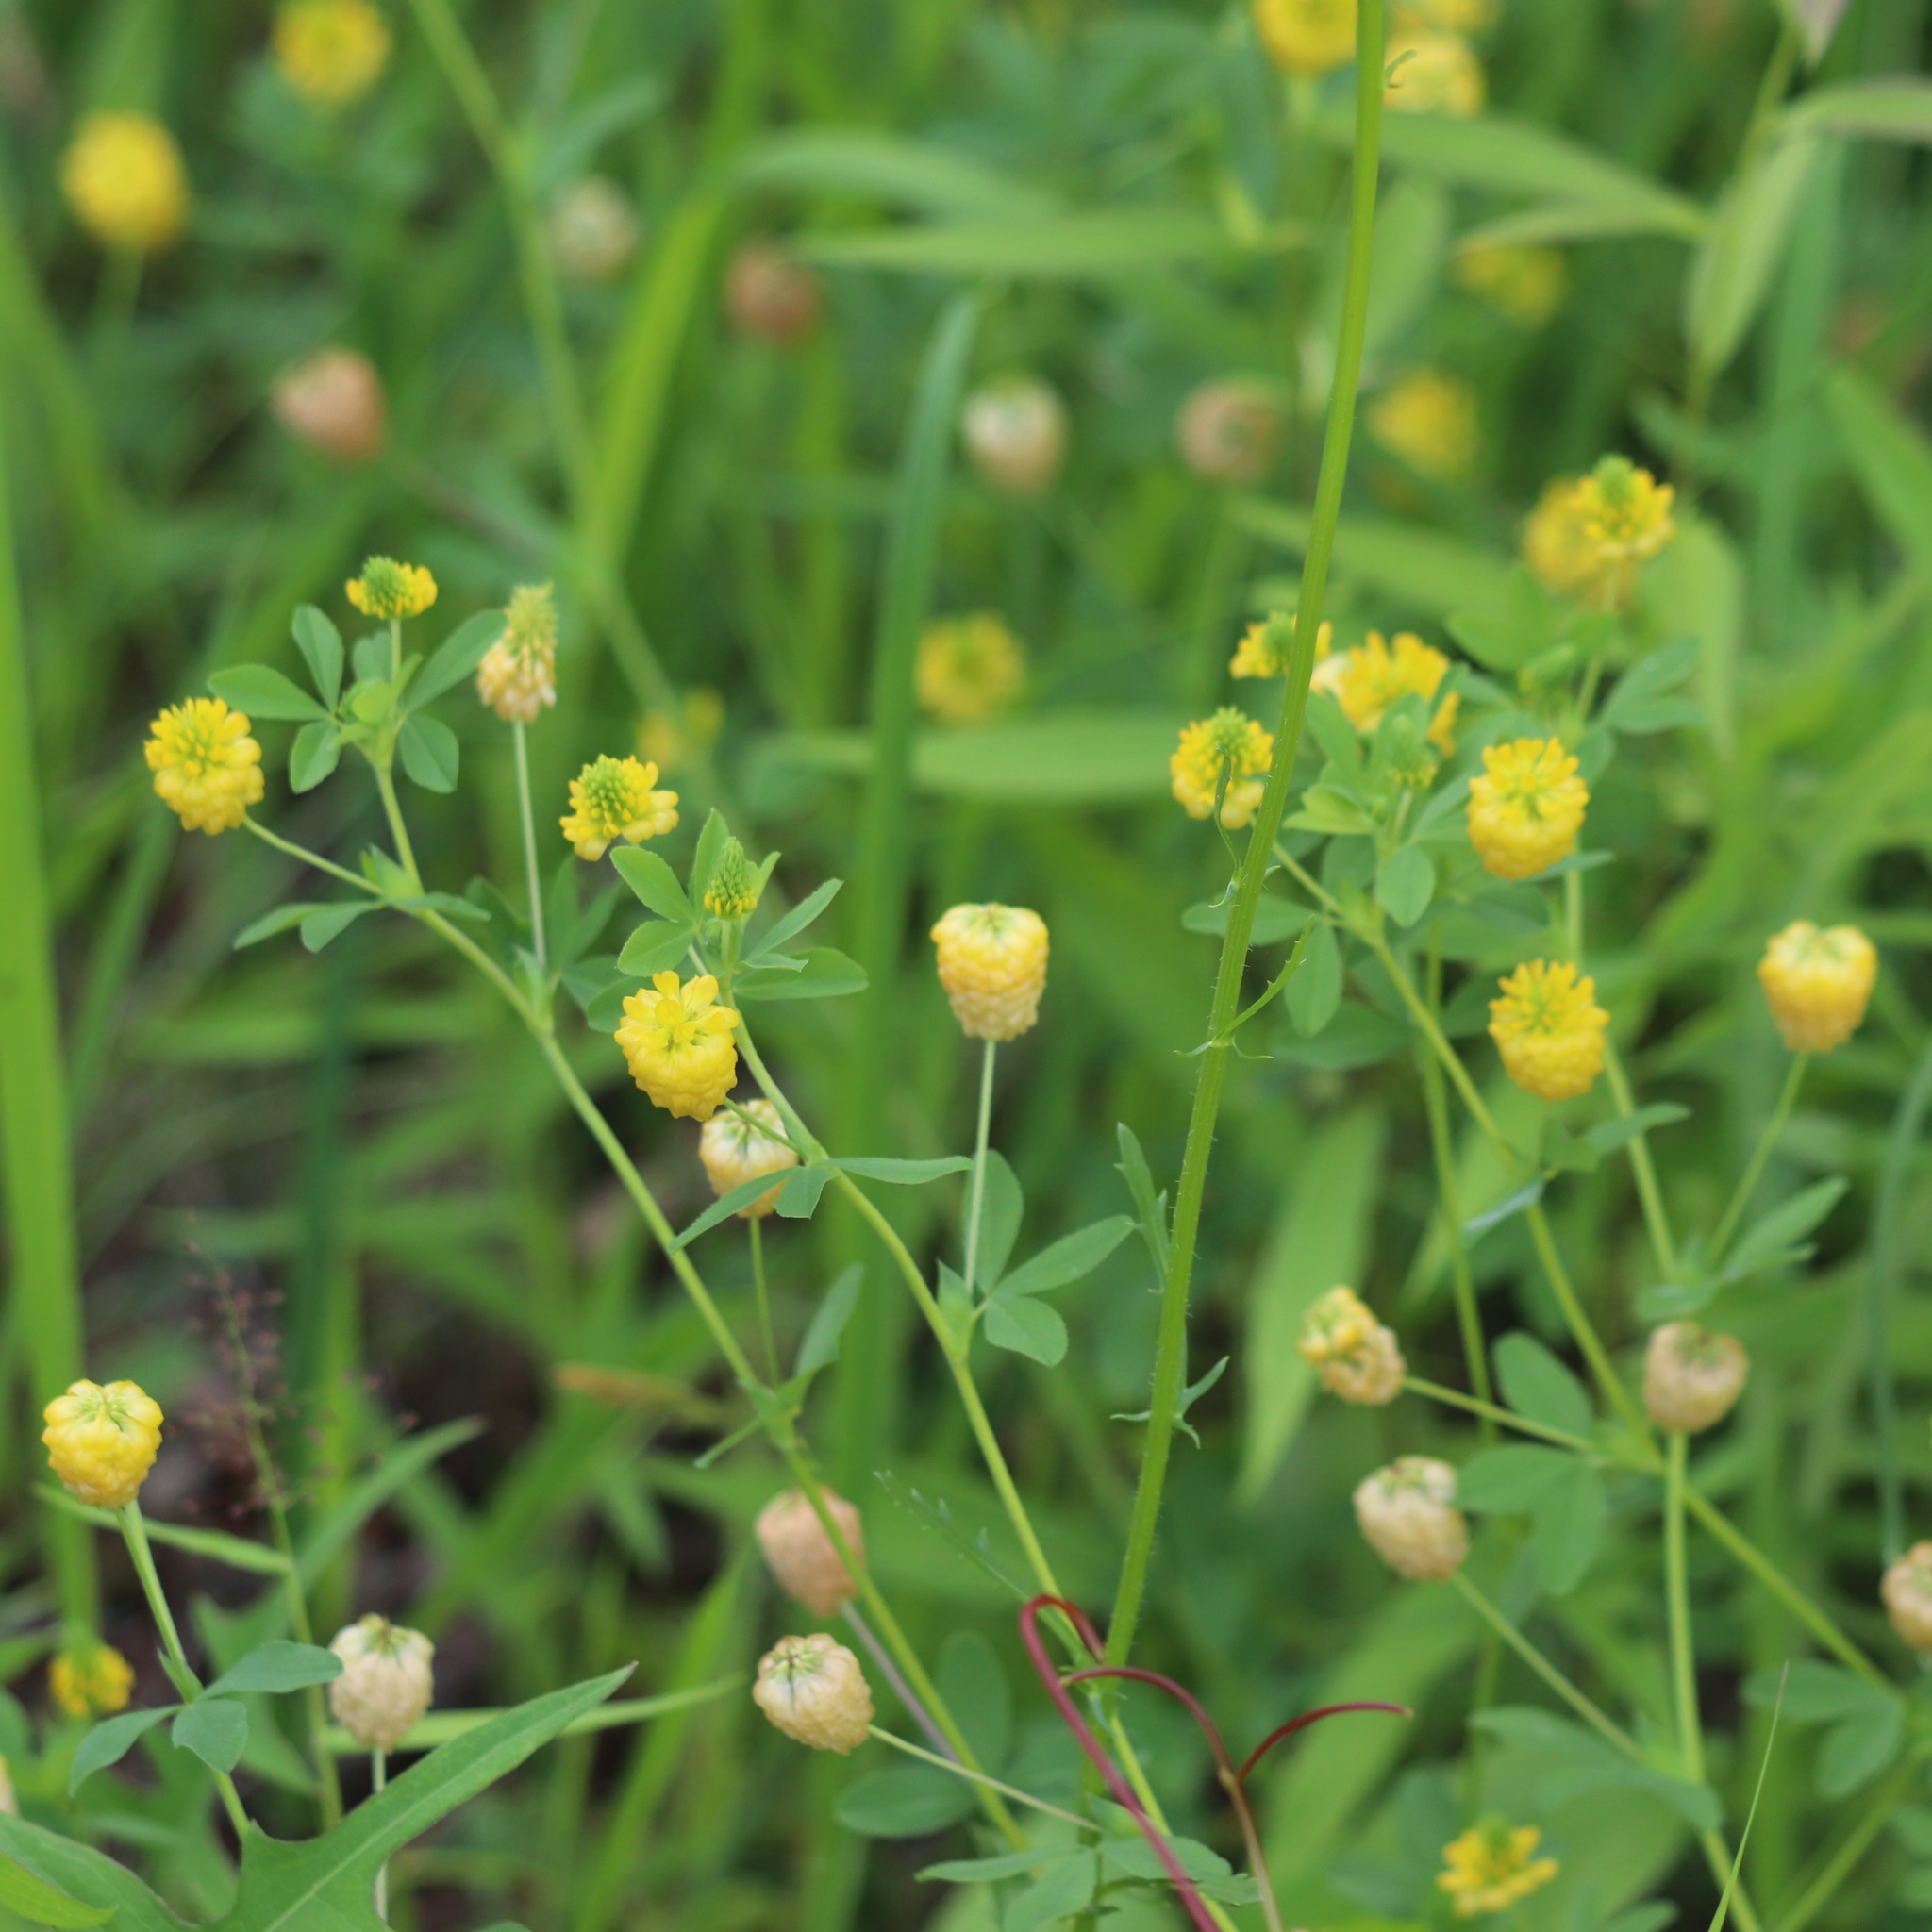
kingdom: Plantae
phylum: Tracheophyta
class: Magnoliopsida
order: Fabales
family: Fabaceae
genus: Trifolium
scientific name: Trifolium aureum
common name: Golden clover
